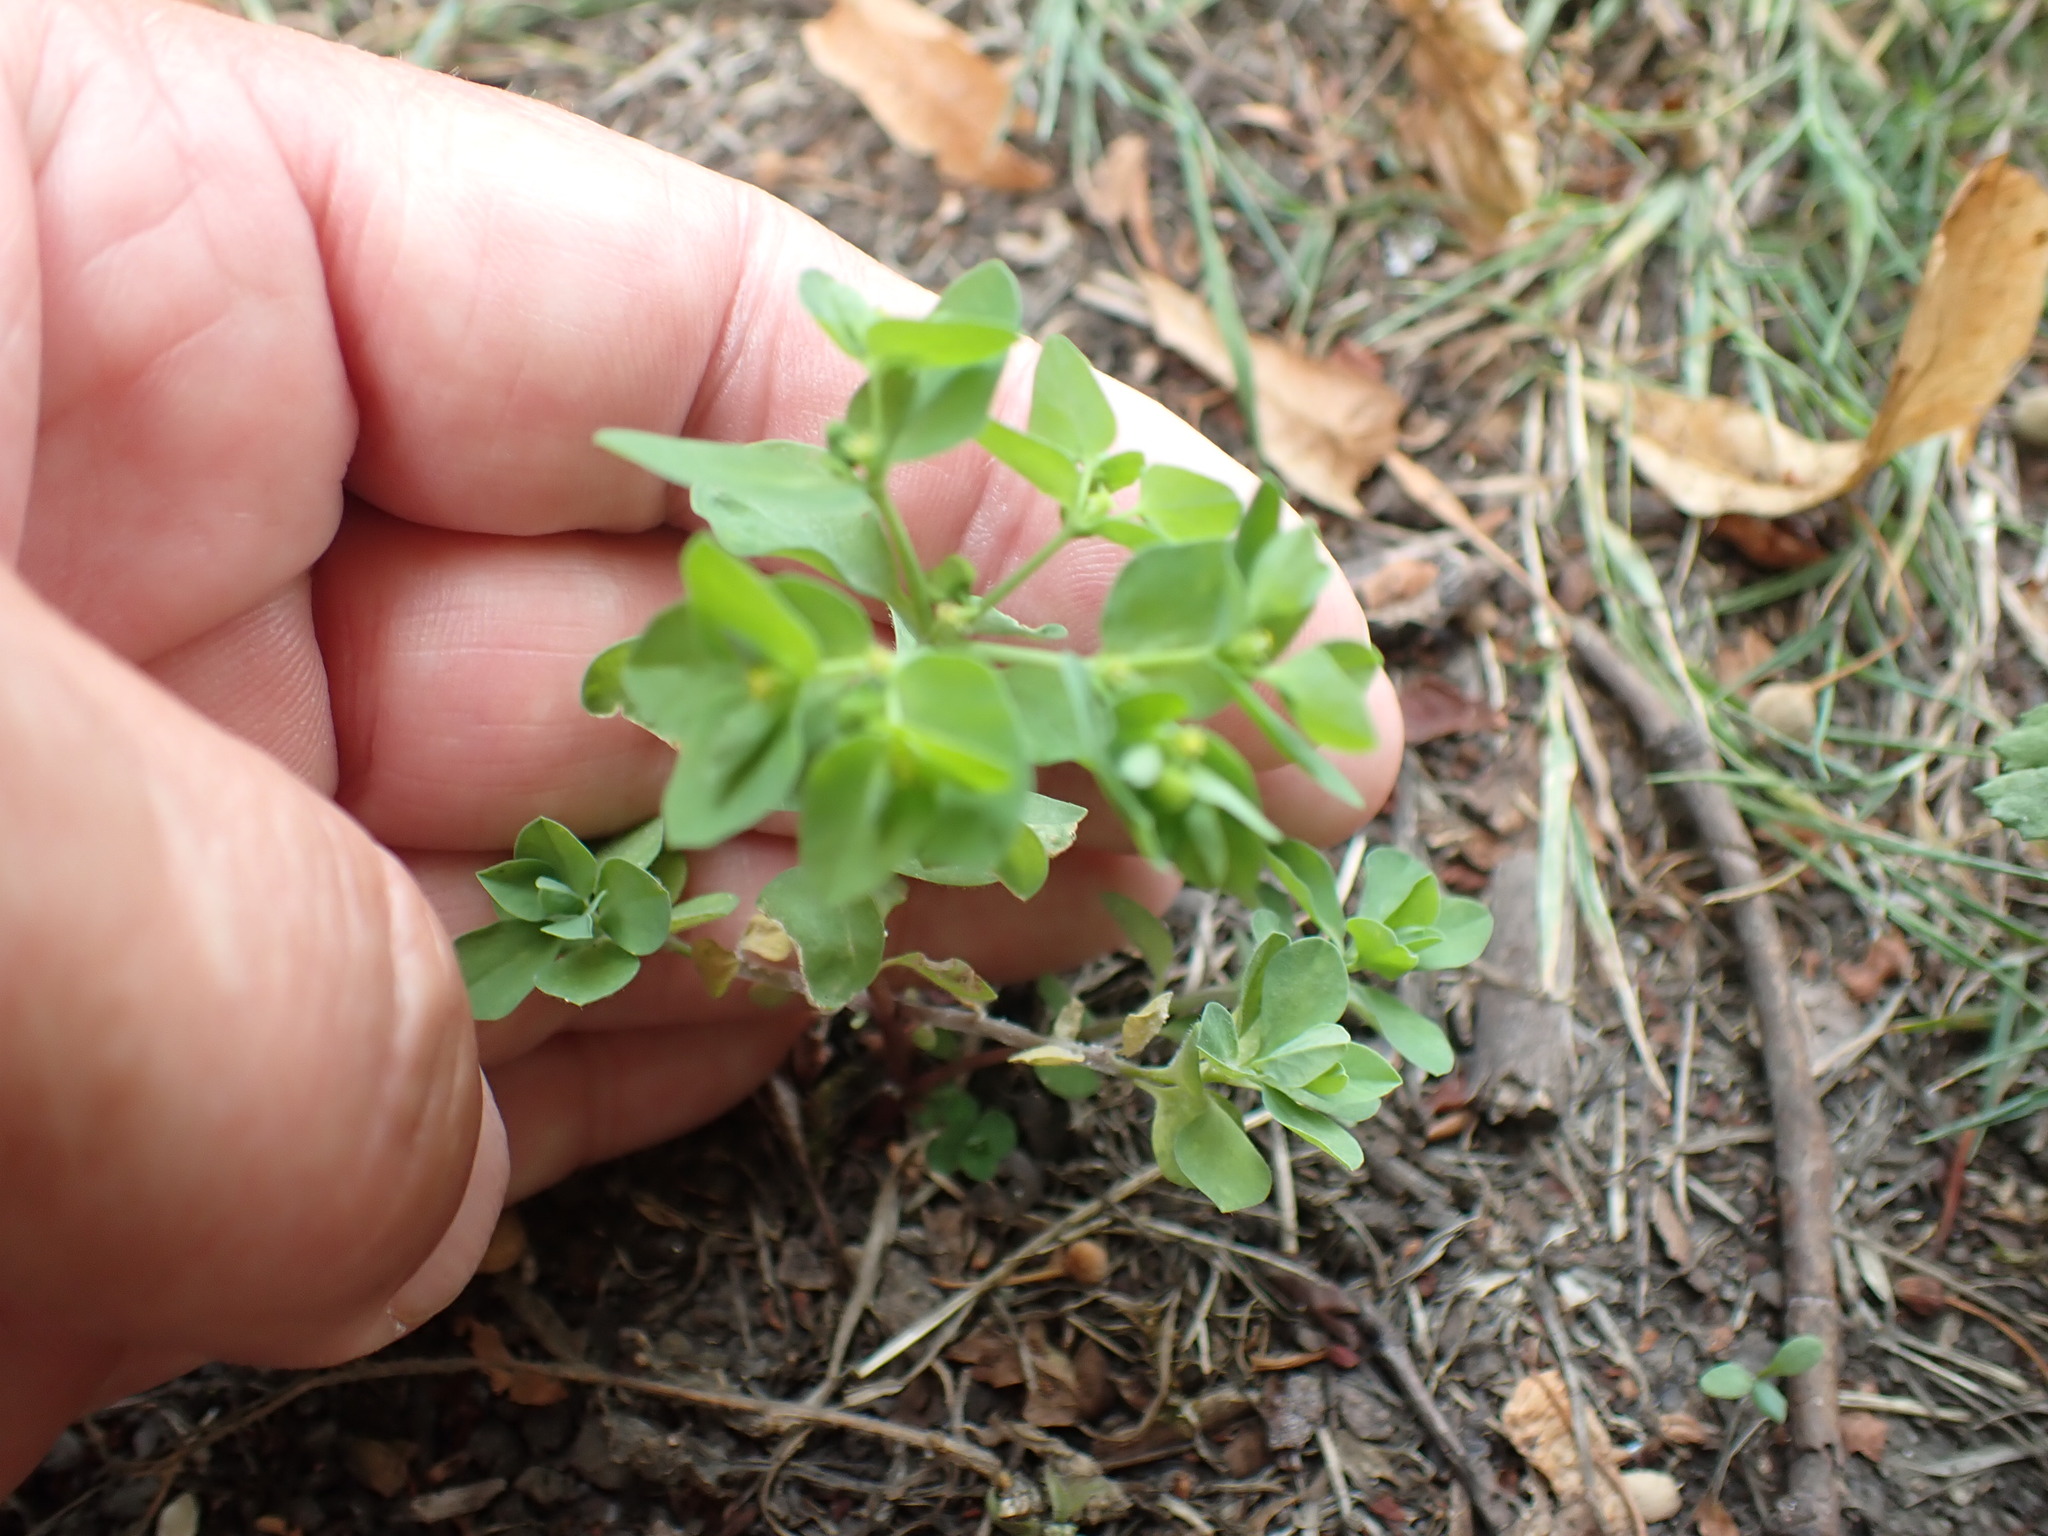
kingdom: Plantae
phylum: Tracheophyta
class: Magnoliopsida
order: Malpighiales
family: Euphorbiaceae
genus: Euphorbia
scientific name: Euphorbia peplus
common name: Petty spurge
